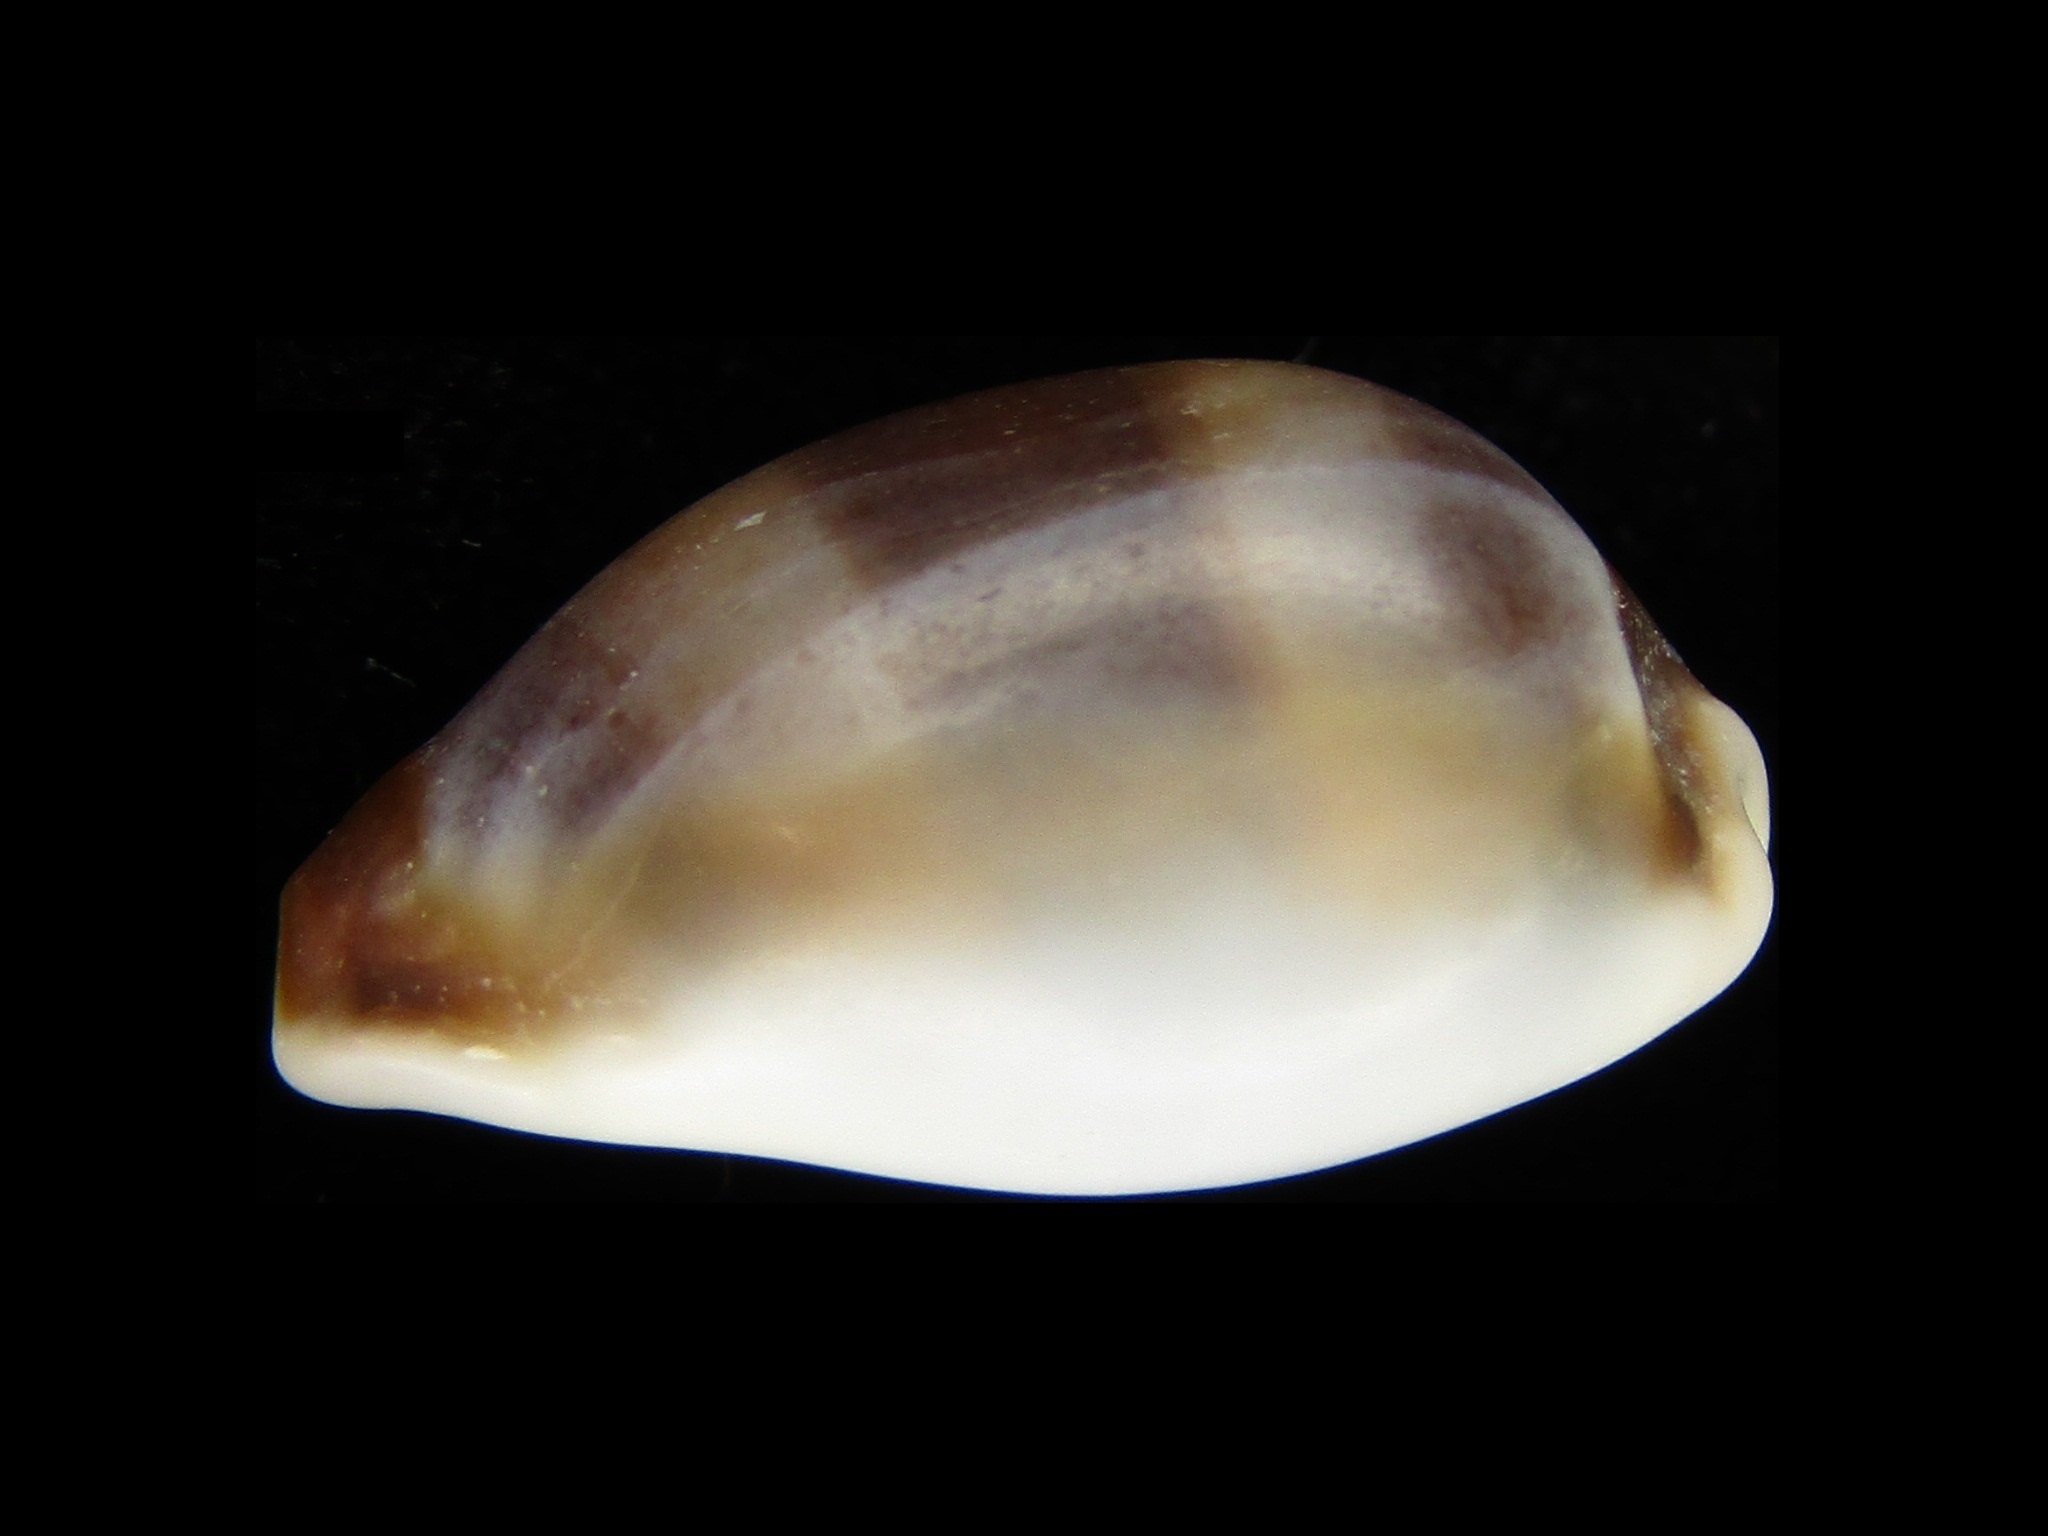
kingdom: Animalia
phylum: Mollusca
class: Gastropoda
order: Littorinimorpha
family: Cypraeidae
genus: Palmadusta
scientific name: Palmadusta artuffeli
